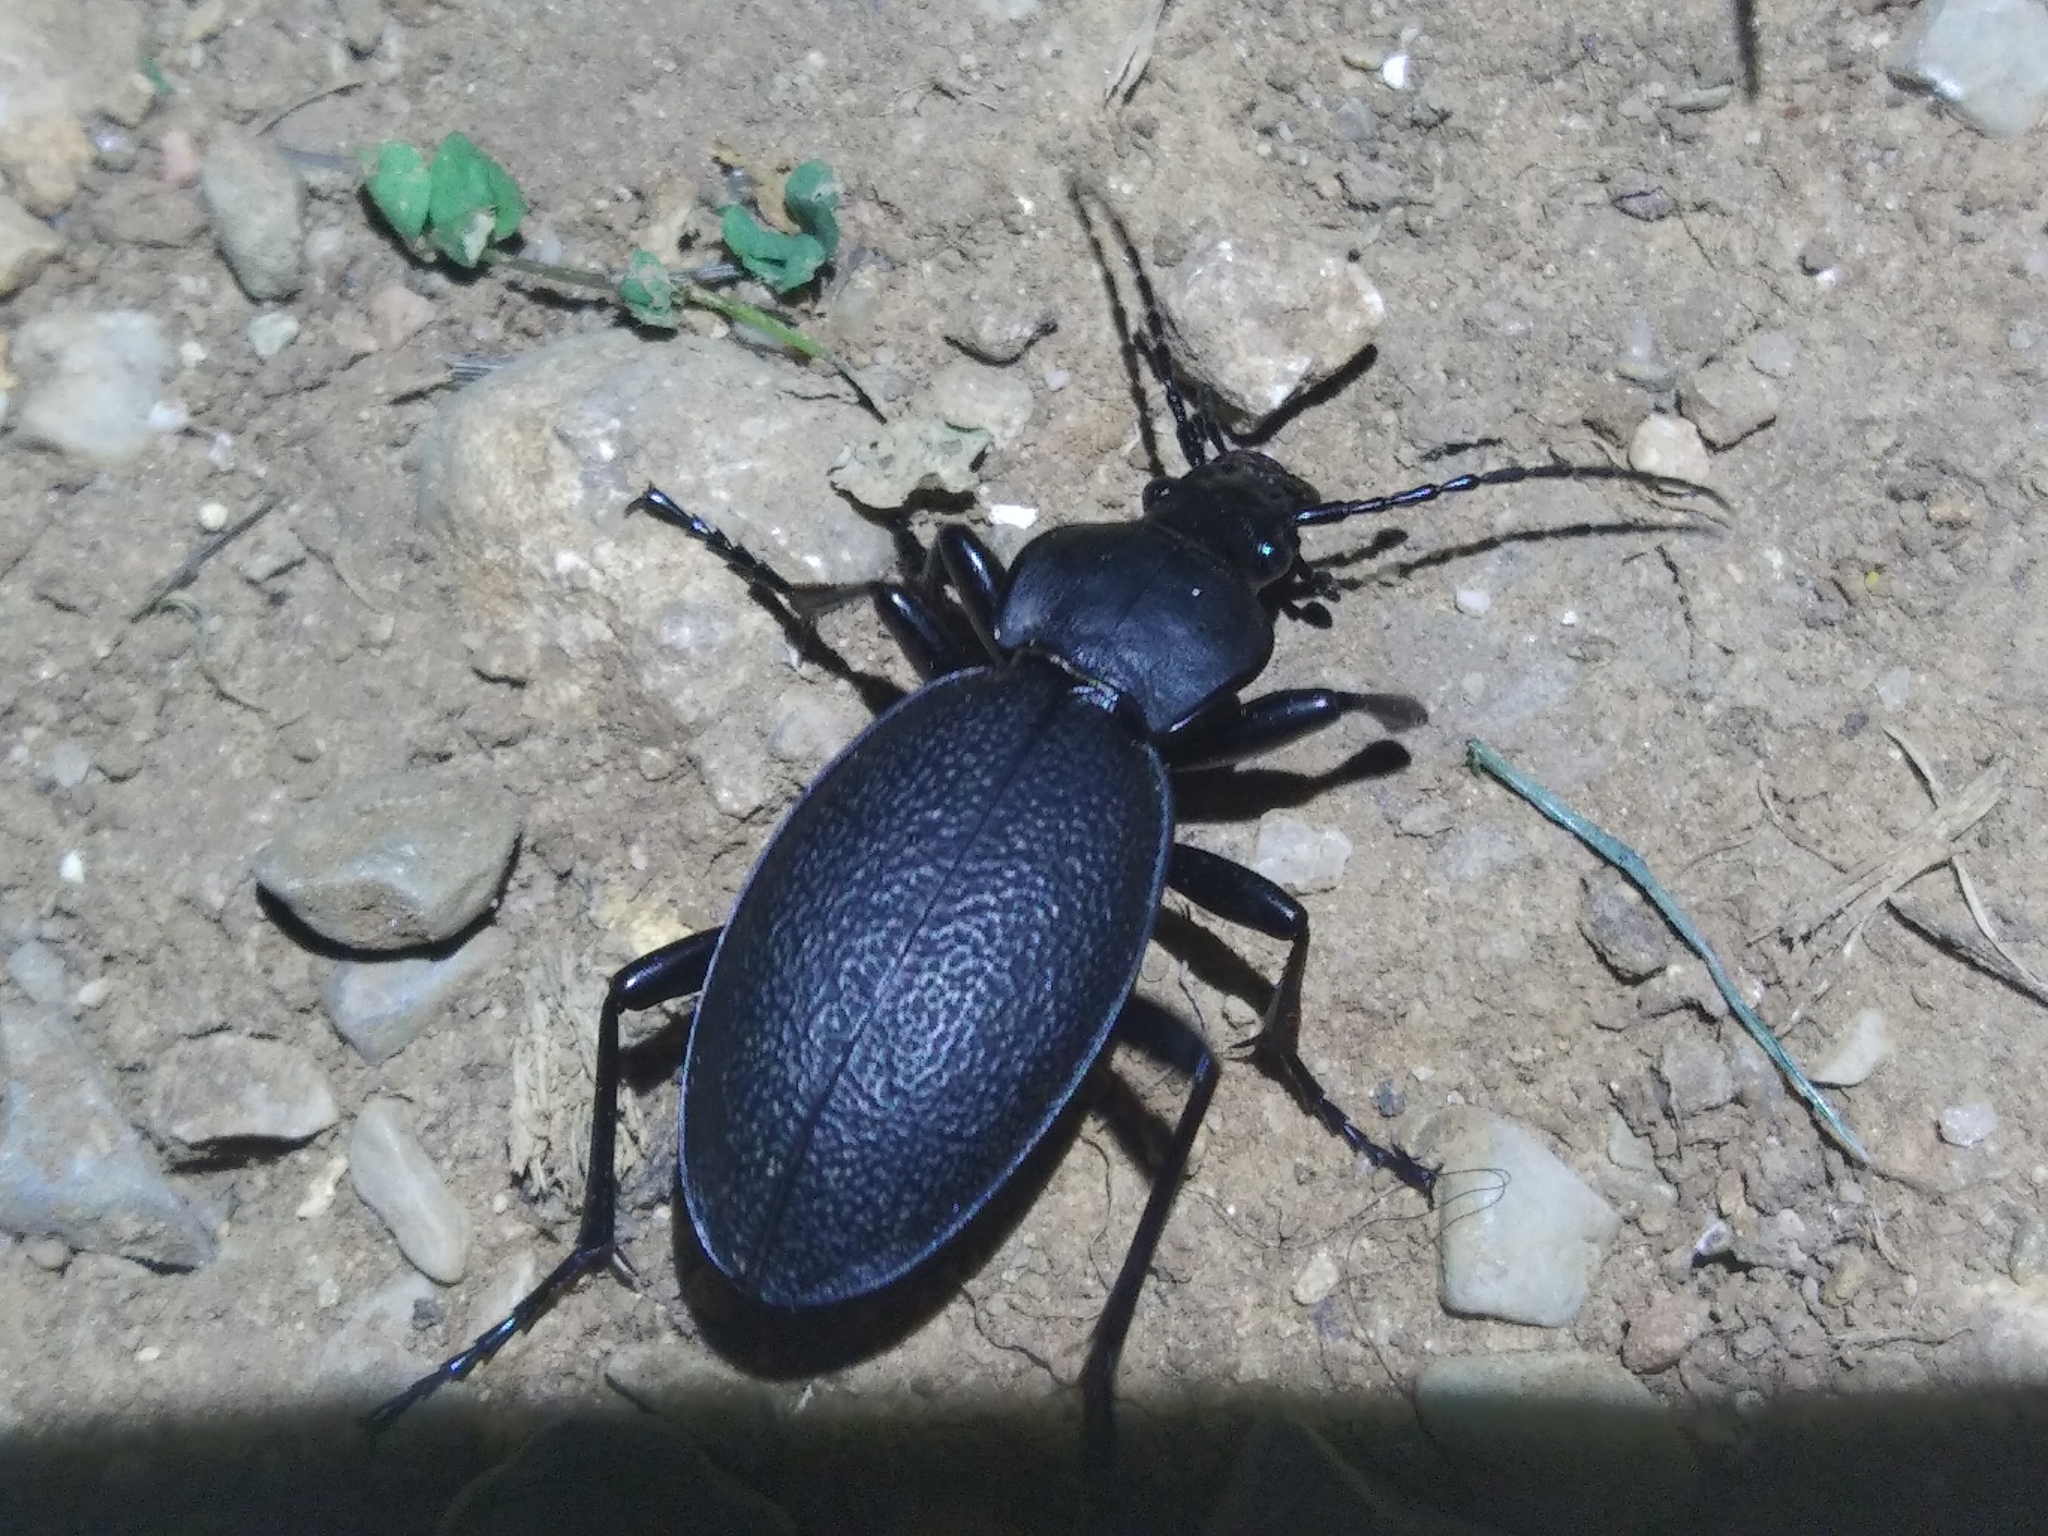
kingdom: Animalia
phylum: Arthropoda
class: Insecta
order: Coleoptera
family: Carabidae
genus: Carabus
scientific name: Carabus coriaceus
